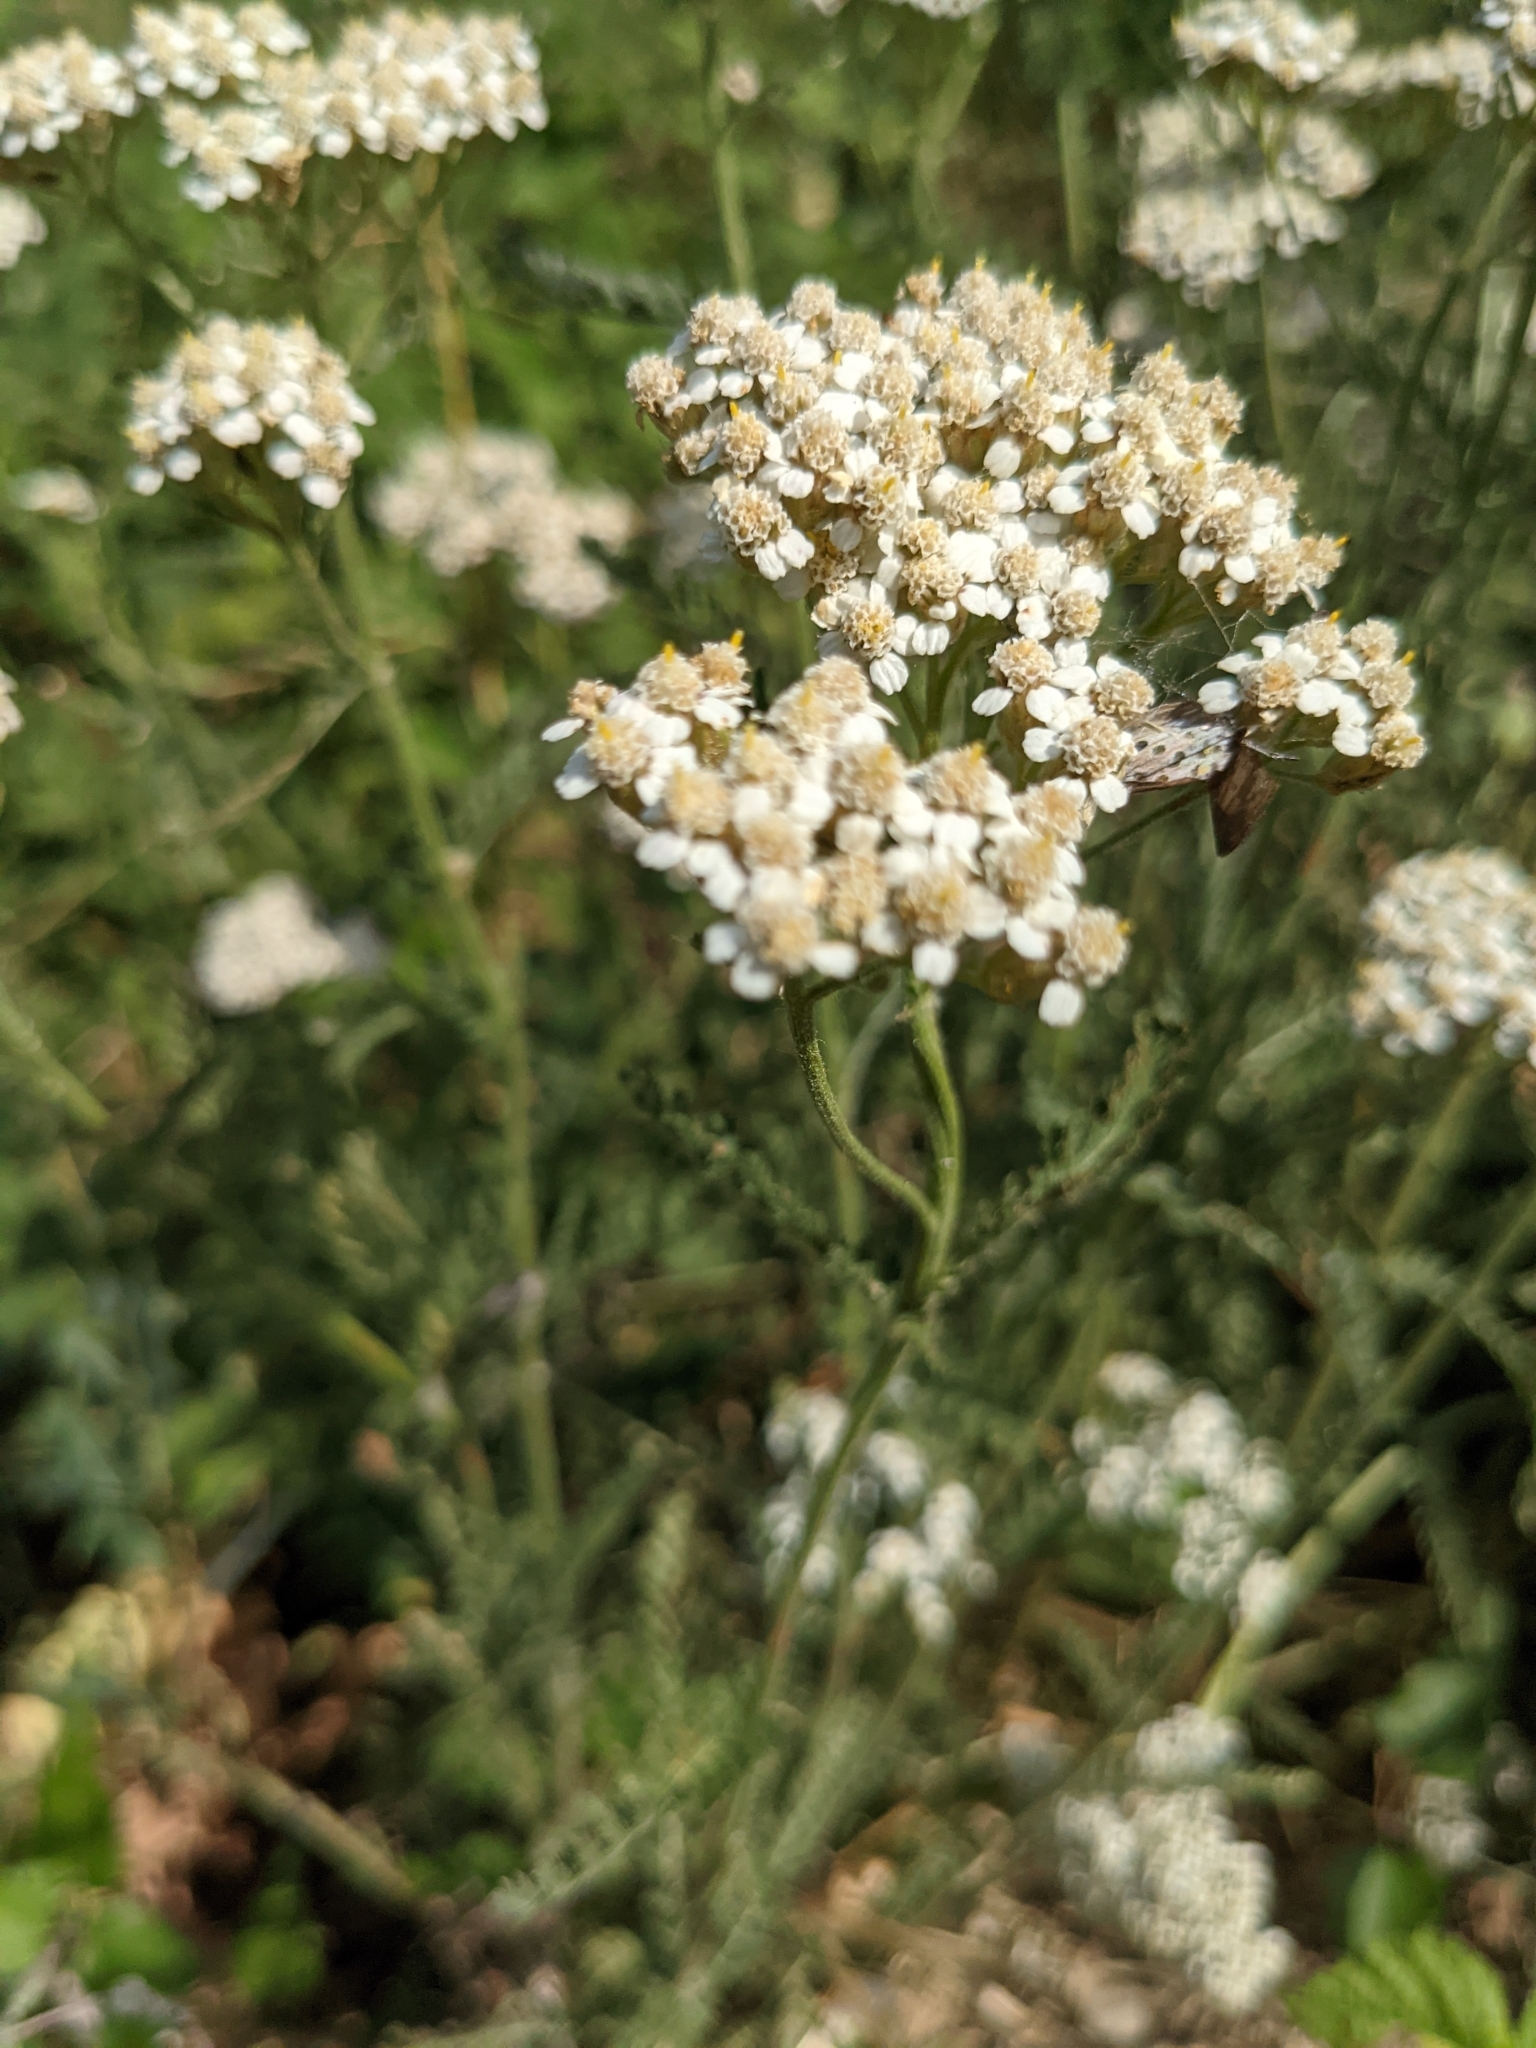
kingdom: Plantae
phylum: Tracheophyta
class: Magnoliopsida
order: Asterales
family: Asteraceae
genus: Achillea
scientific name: Achillea millefolium
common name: Yarrow
